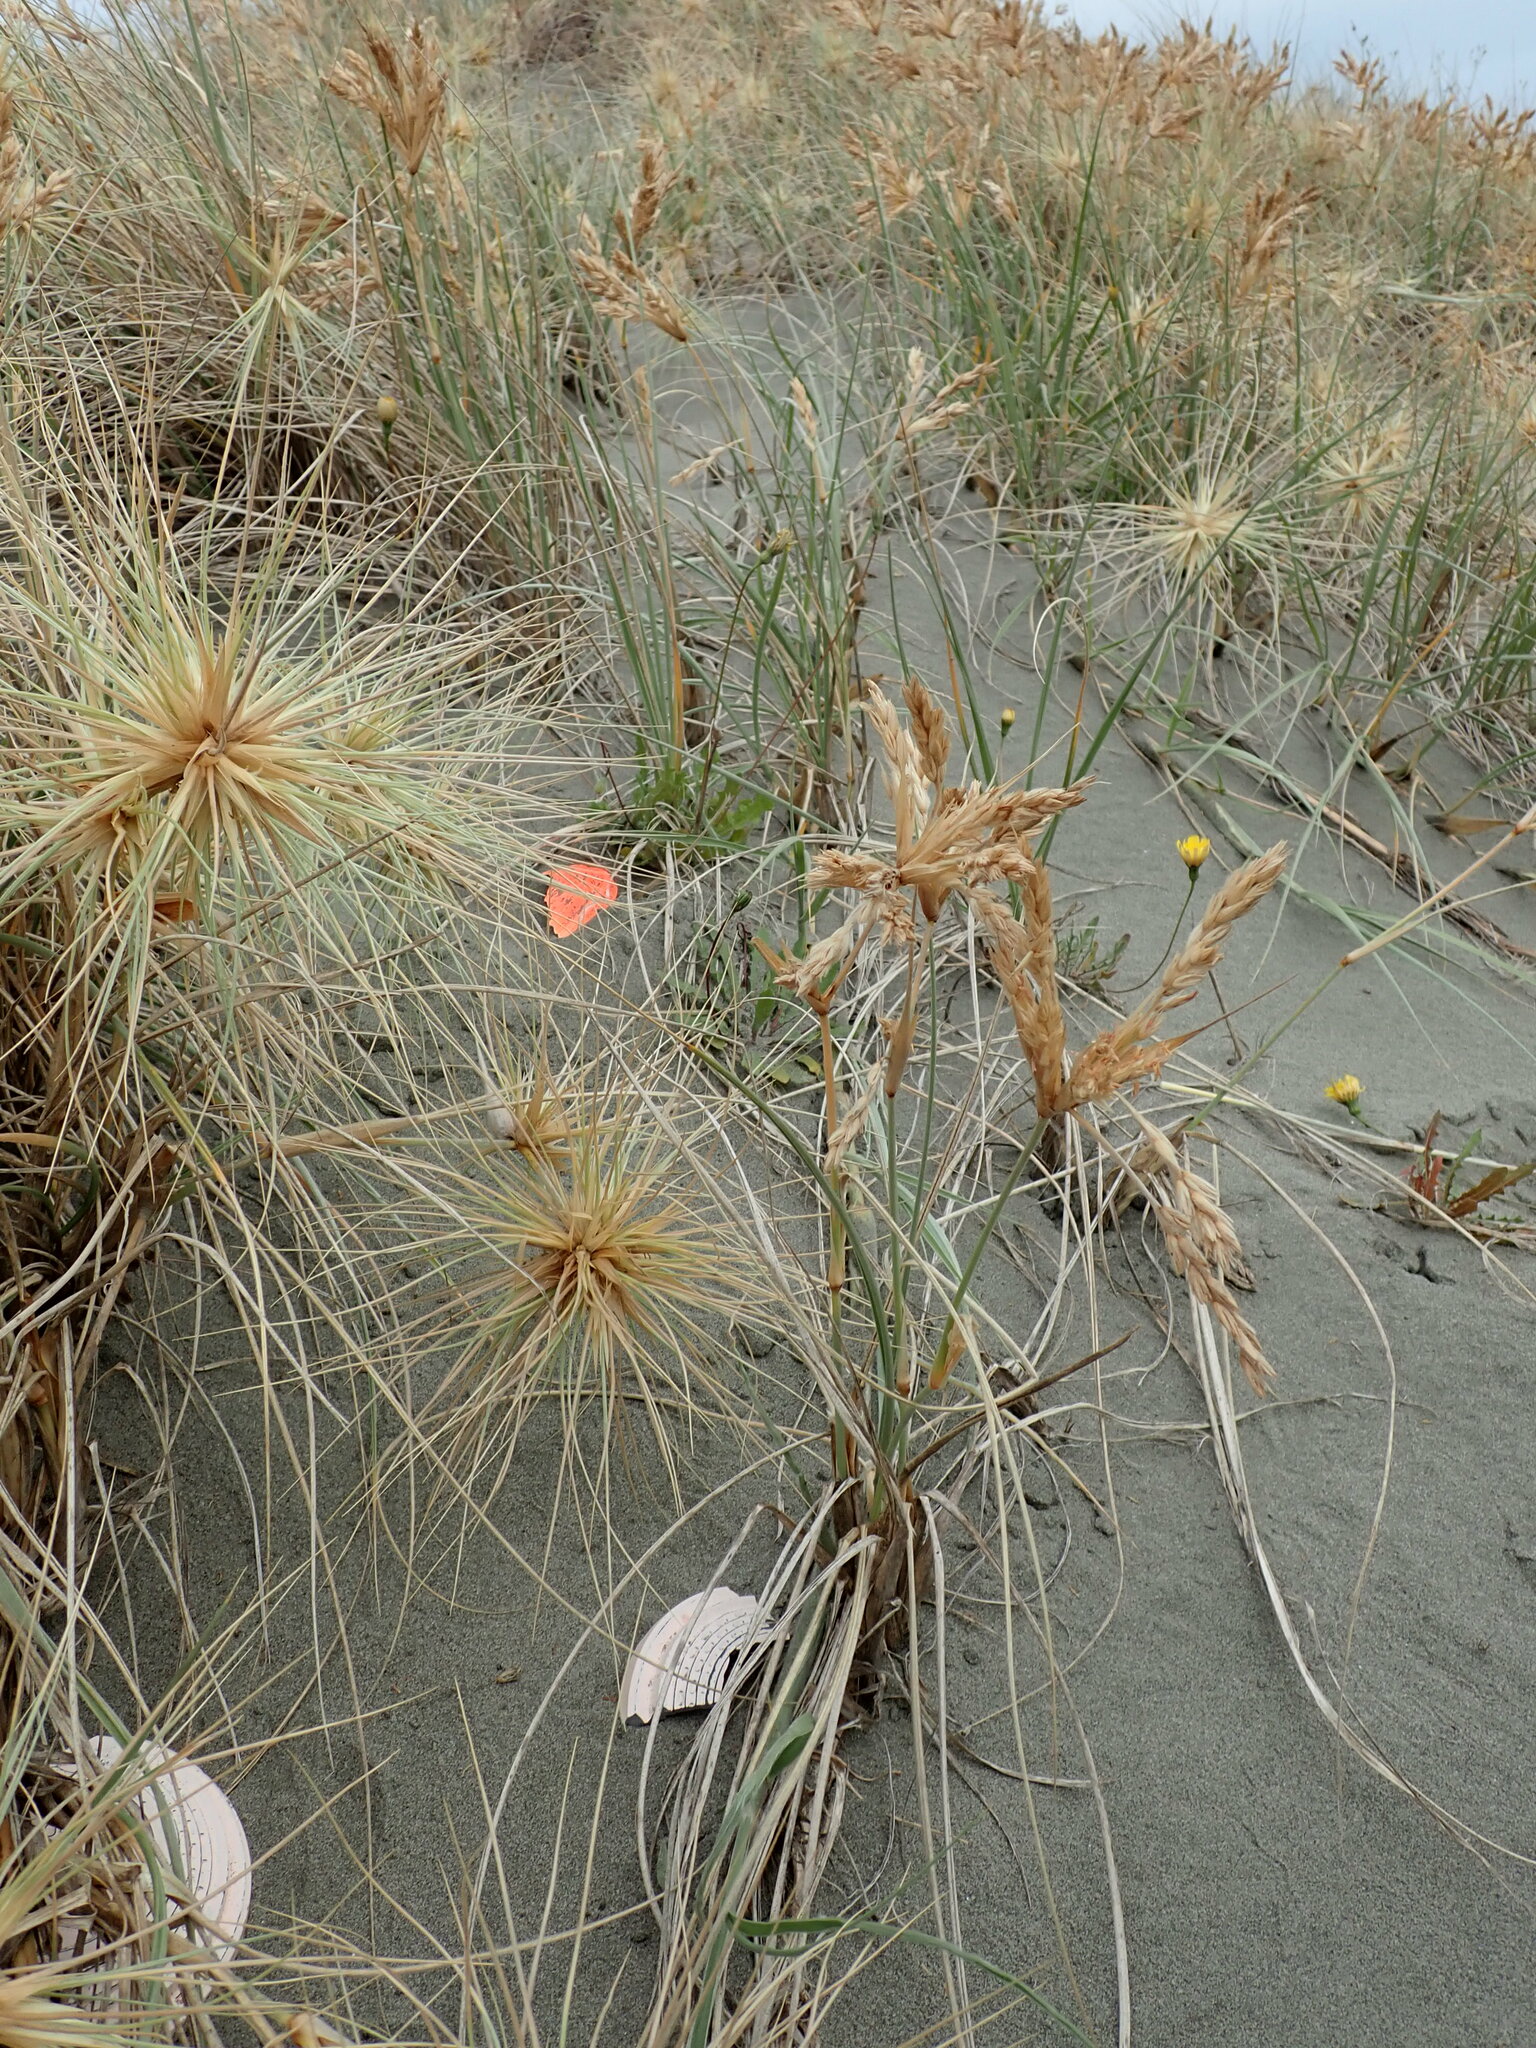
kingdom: Animalia
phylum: Arthropoda
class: Arachnida
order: Araneae
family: Theridiidae
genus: Latrodectus
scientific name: Latrodectus katipo
